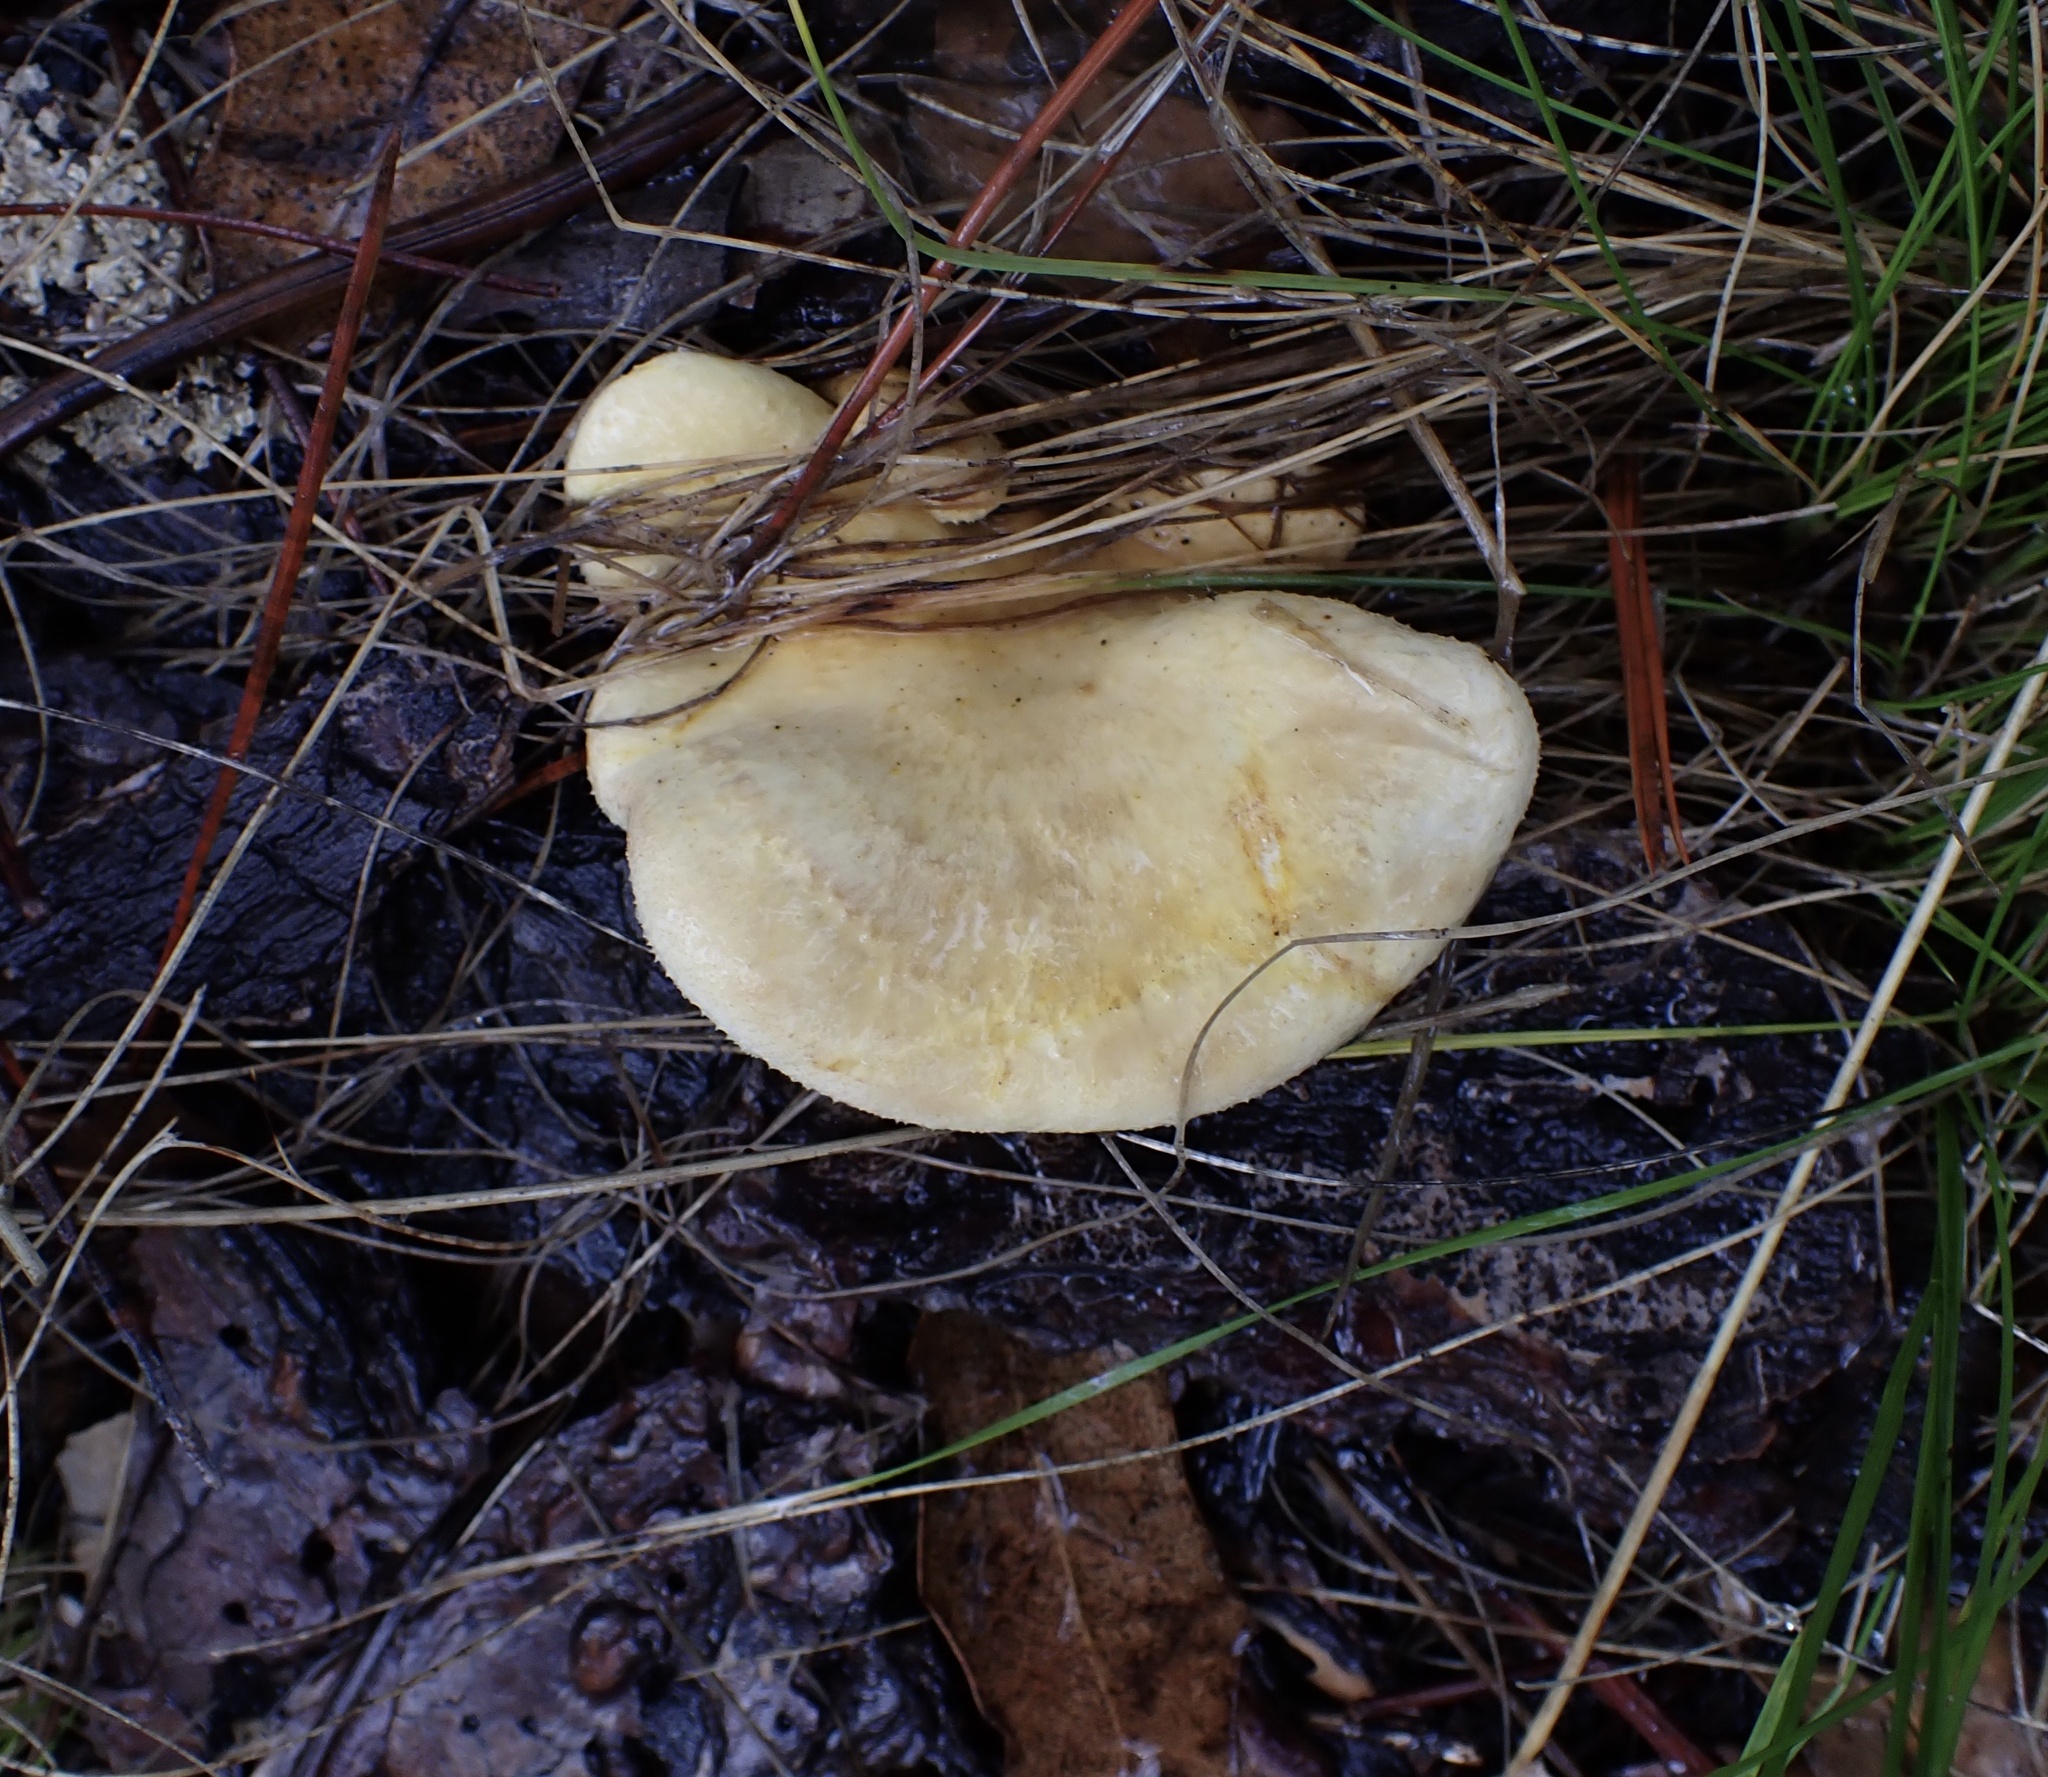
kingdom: Fungi
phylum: Basidiomycota
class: Agaricomycetes
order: Boletales
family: Tapinellaceae
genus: Tapinella
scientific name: Tapinella panuoides
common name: Oyster rollrim
